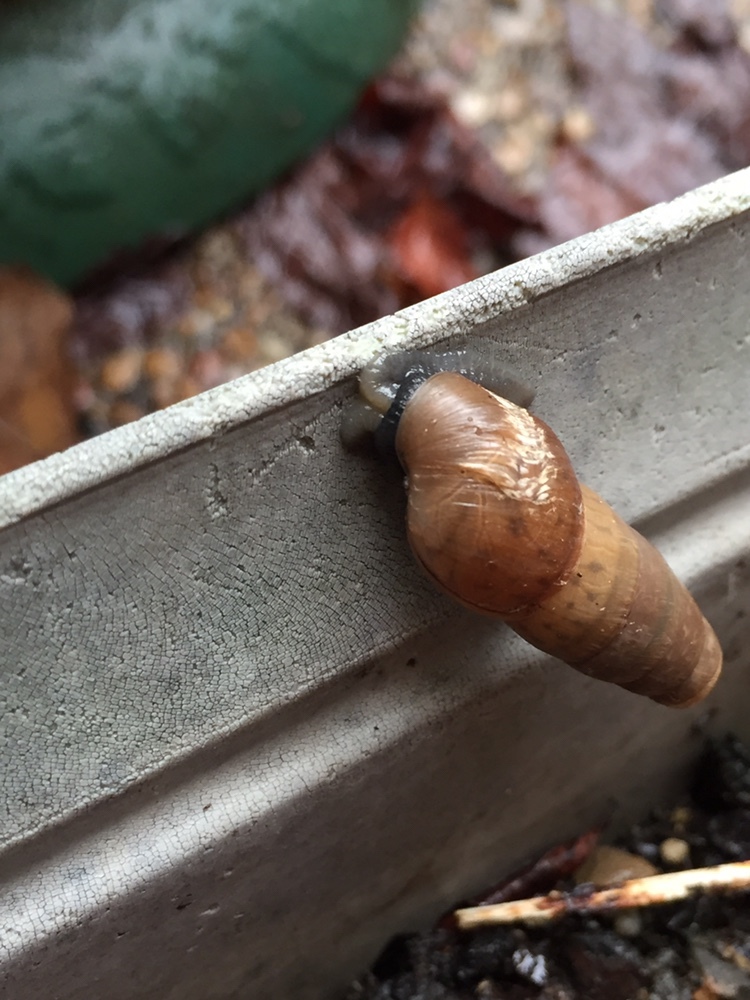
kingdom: Animalia
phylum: Mollusca
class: Gastropoda
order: Stylommatophora
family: Achatinidae
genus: Rumina
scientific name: Rumina decollata
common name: Decollate snail
